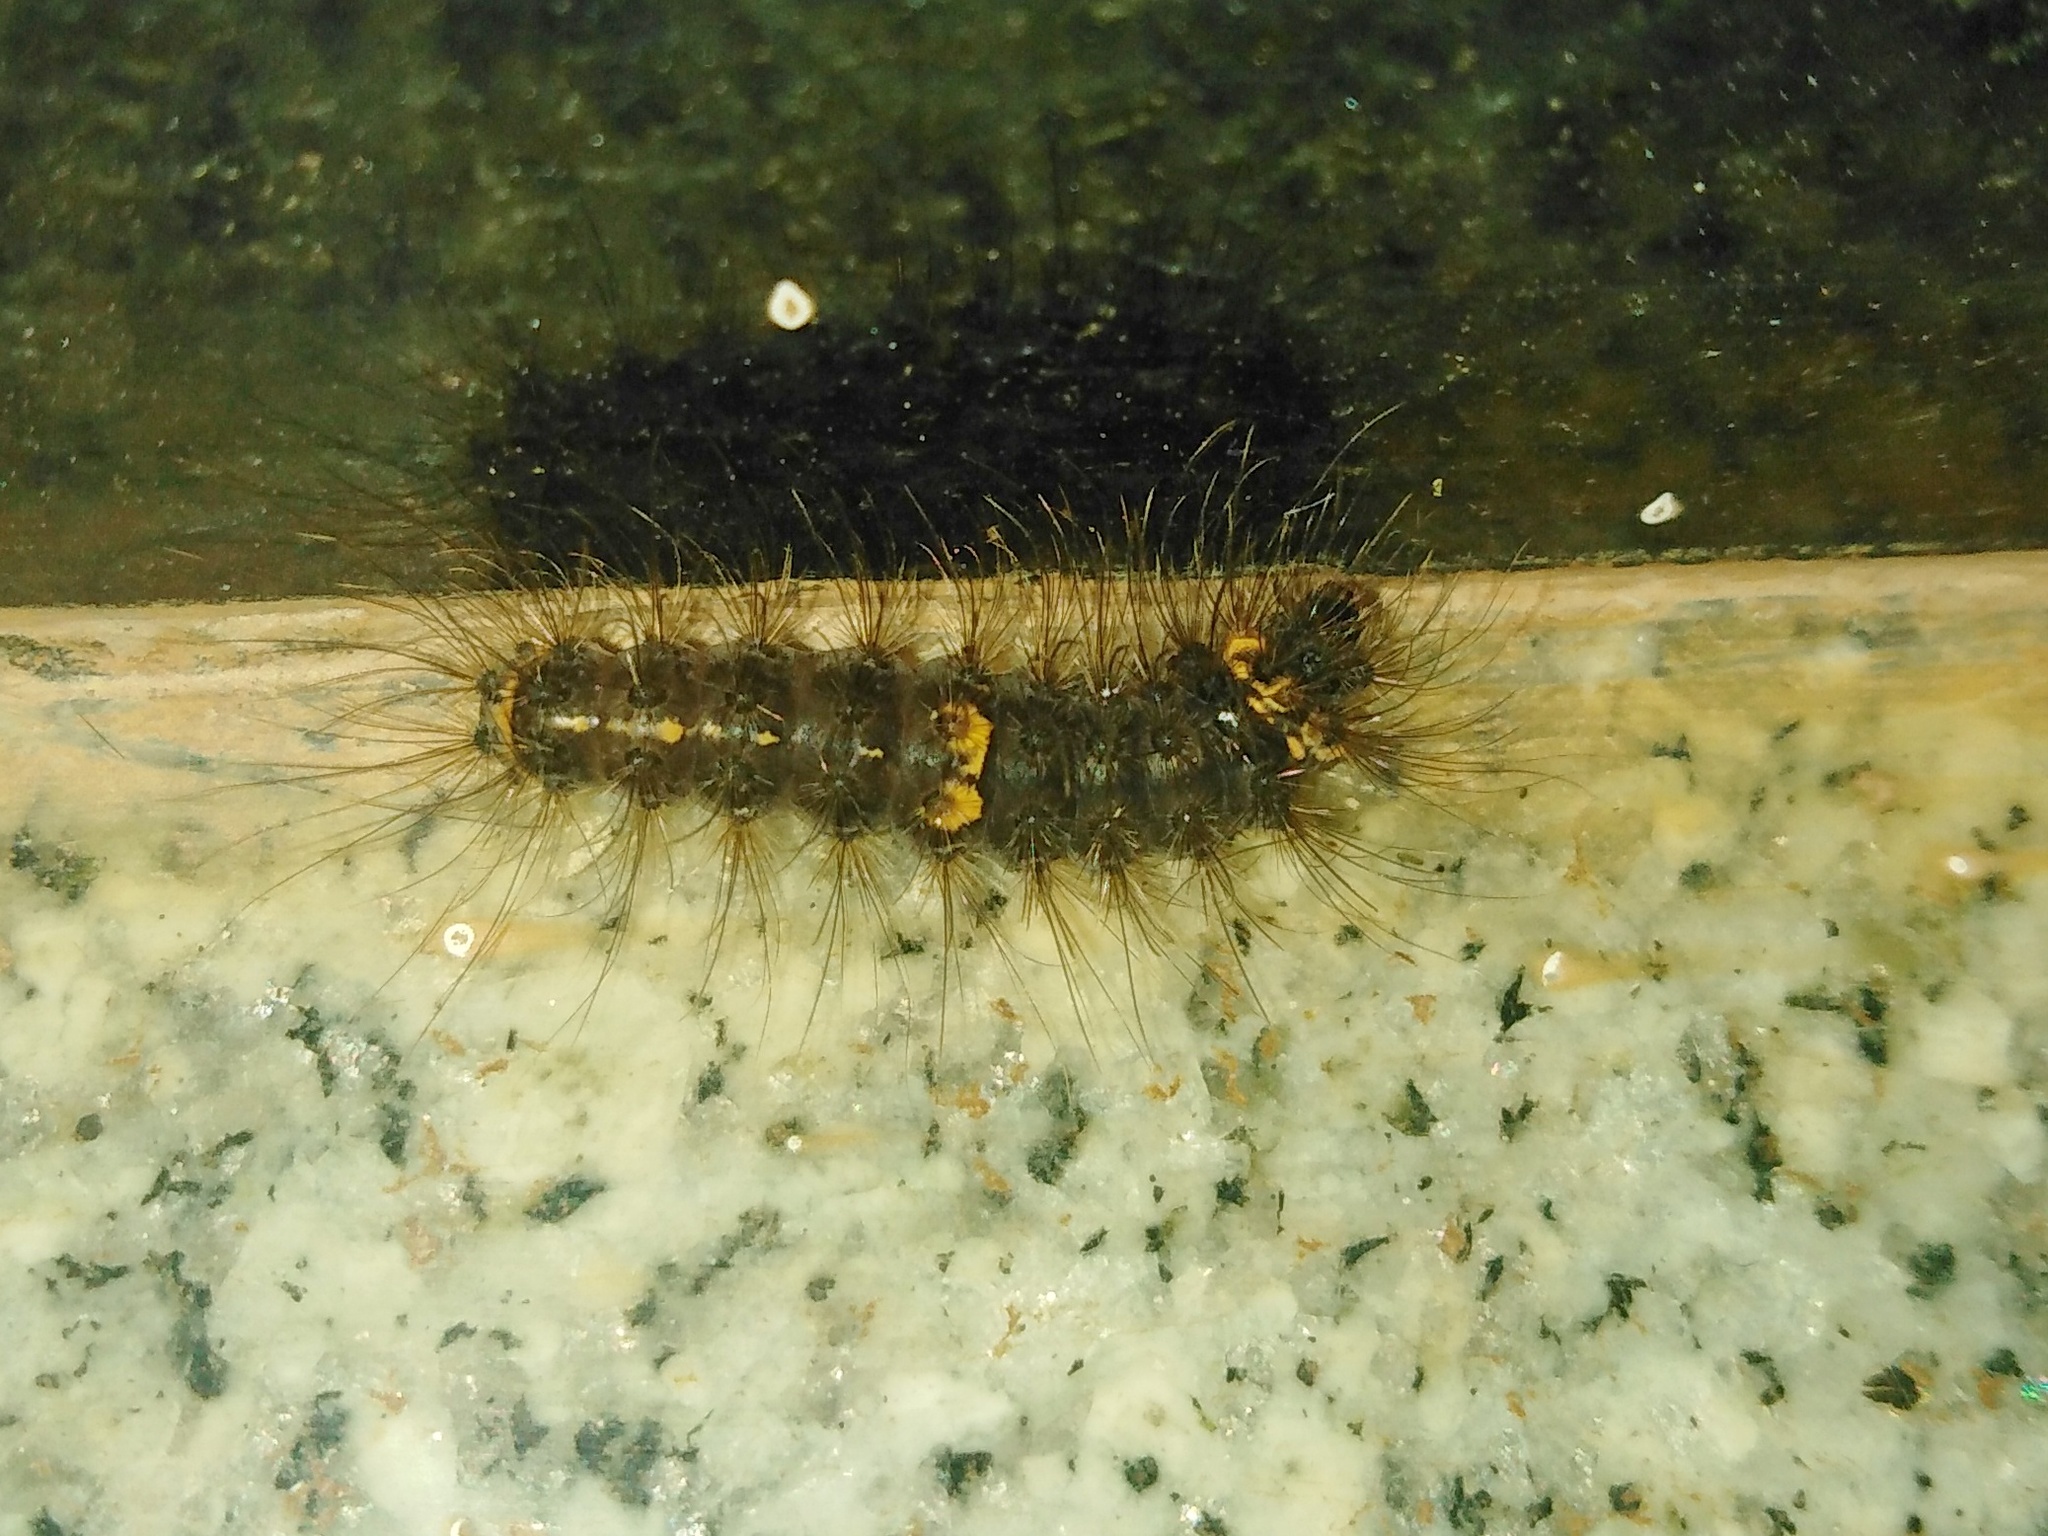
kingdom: Animalia
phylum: Arthropoda
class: Insecta
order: Lepidoptera
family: Erebidae
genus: Nepita
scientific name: Nepita conferta
